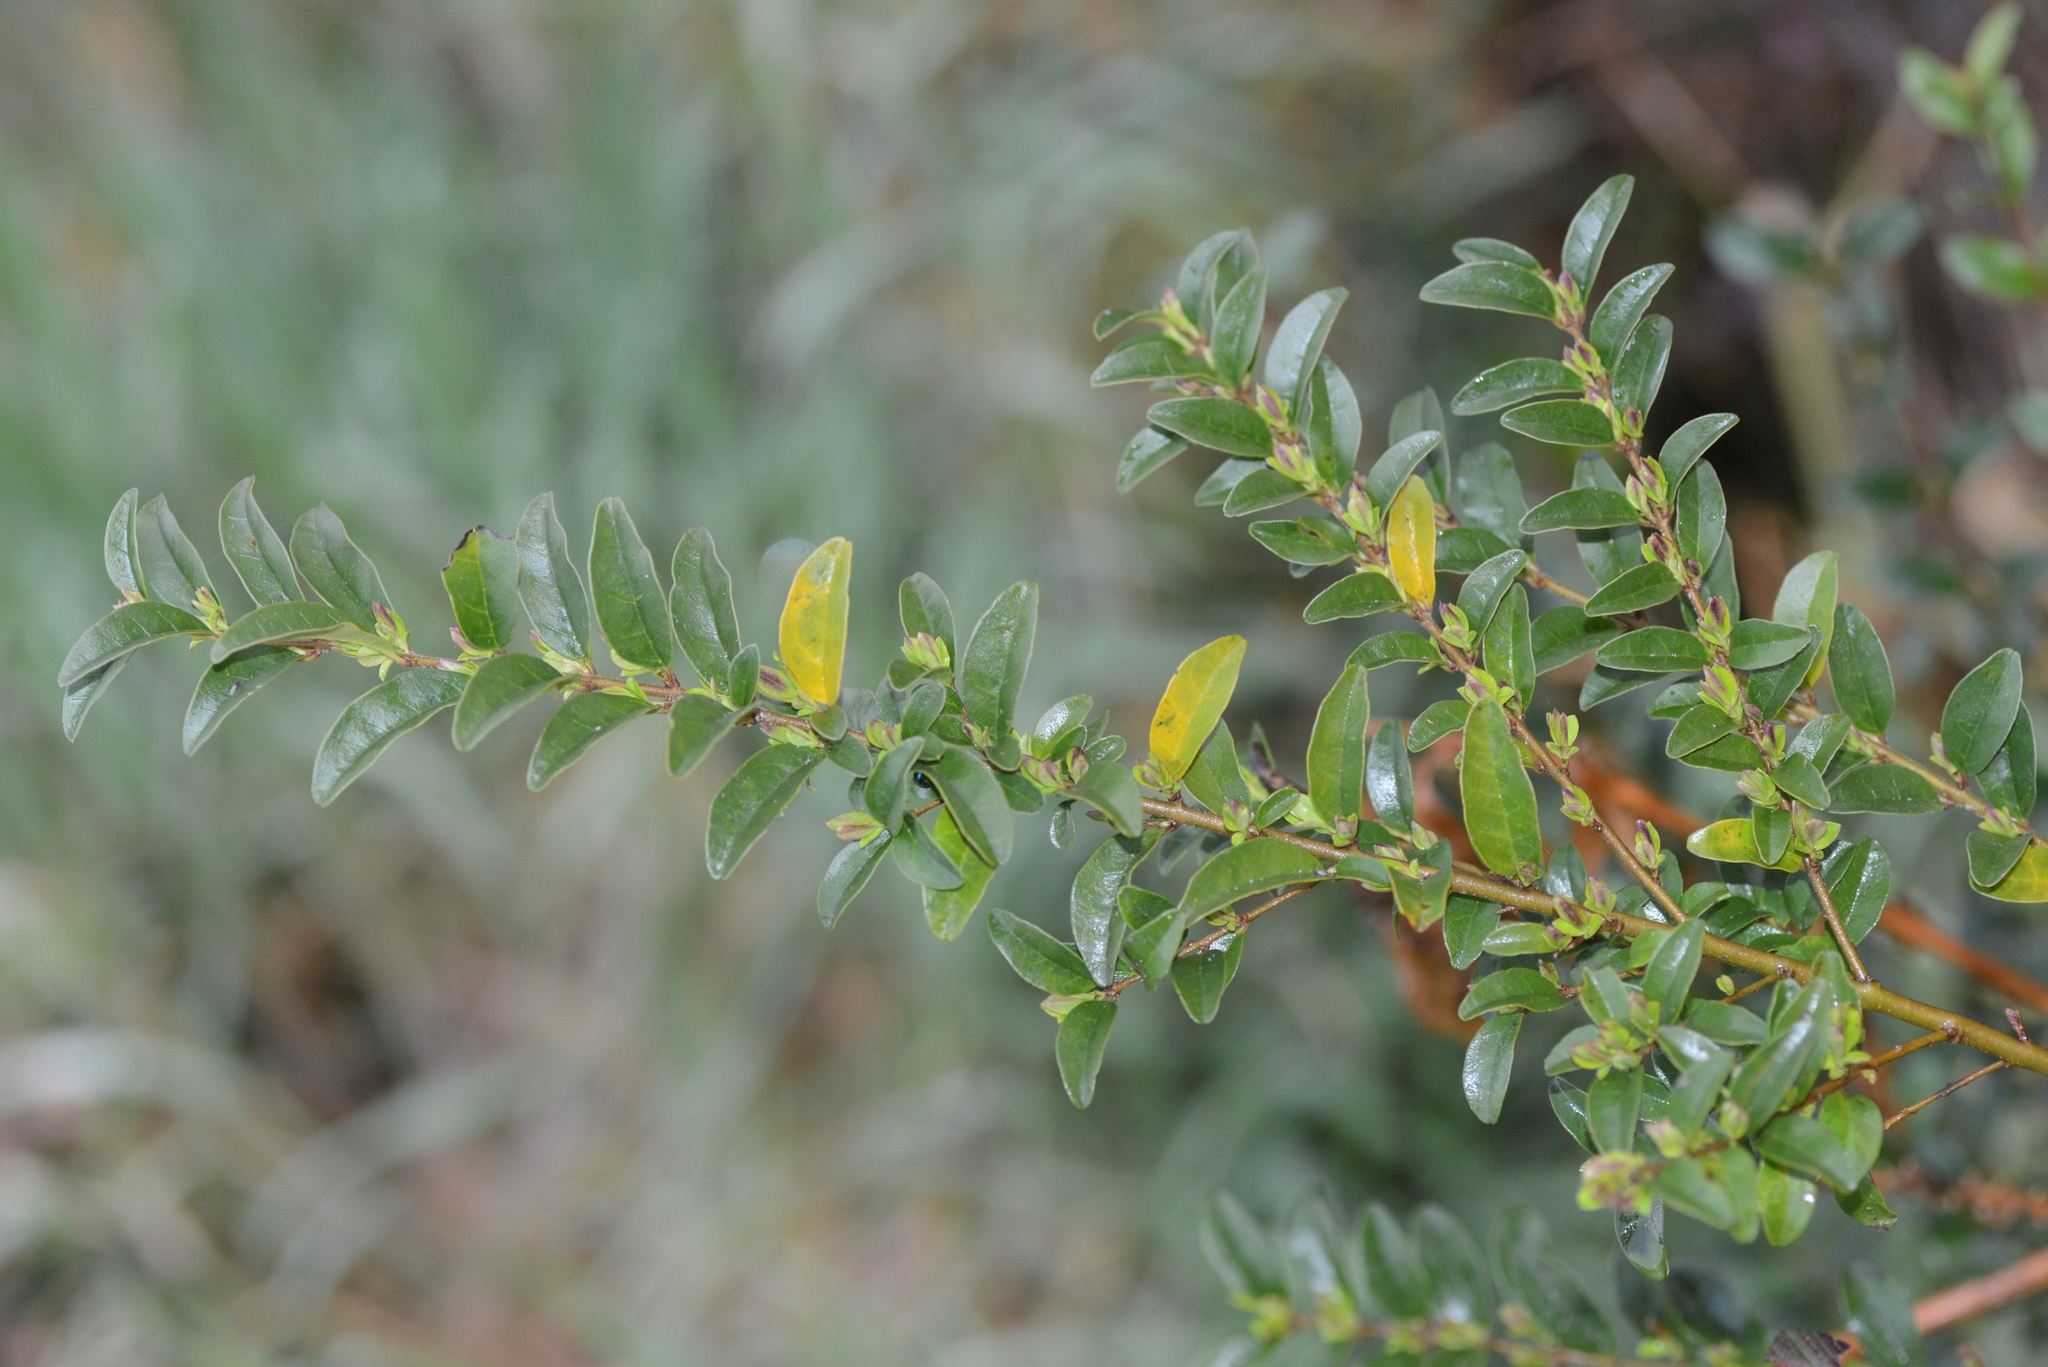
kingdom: Plantae
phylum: Tracheophyta
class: Magnoliopsida
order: Lamiales
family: Oleaceae
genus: Ligustrum
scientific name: Ligustrum sinense
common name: Chinese privet
